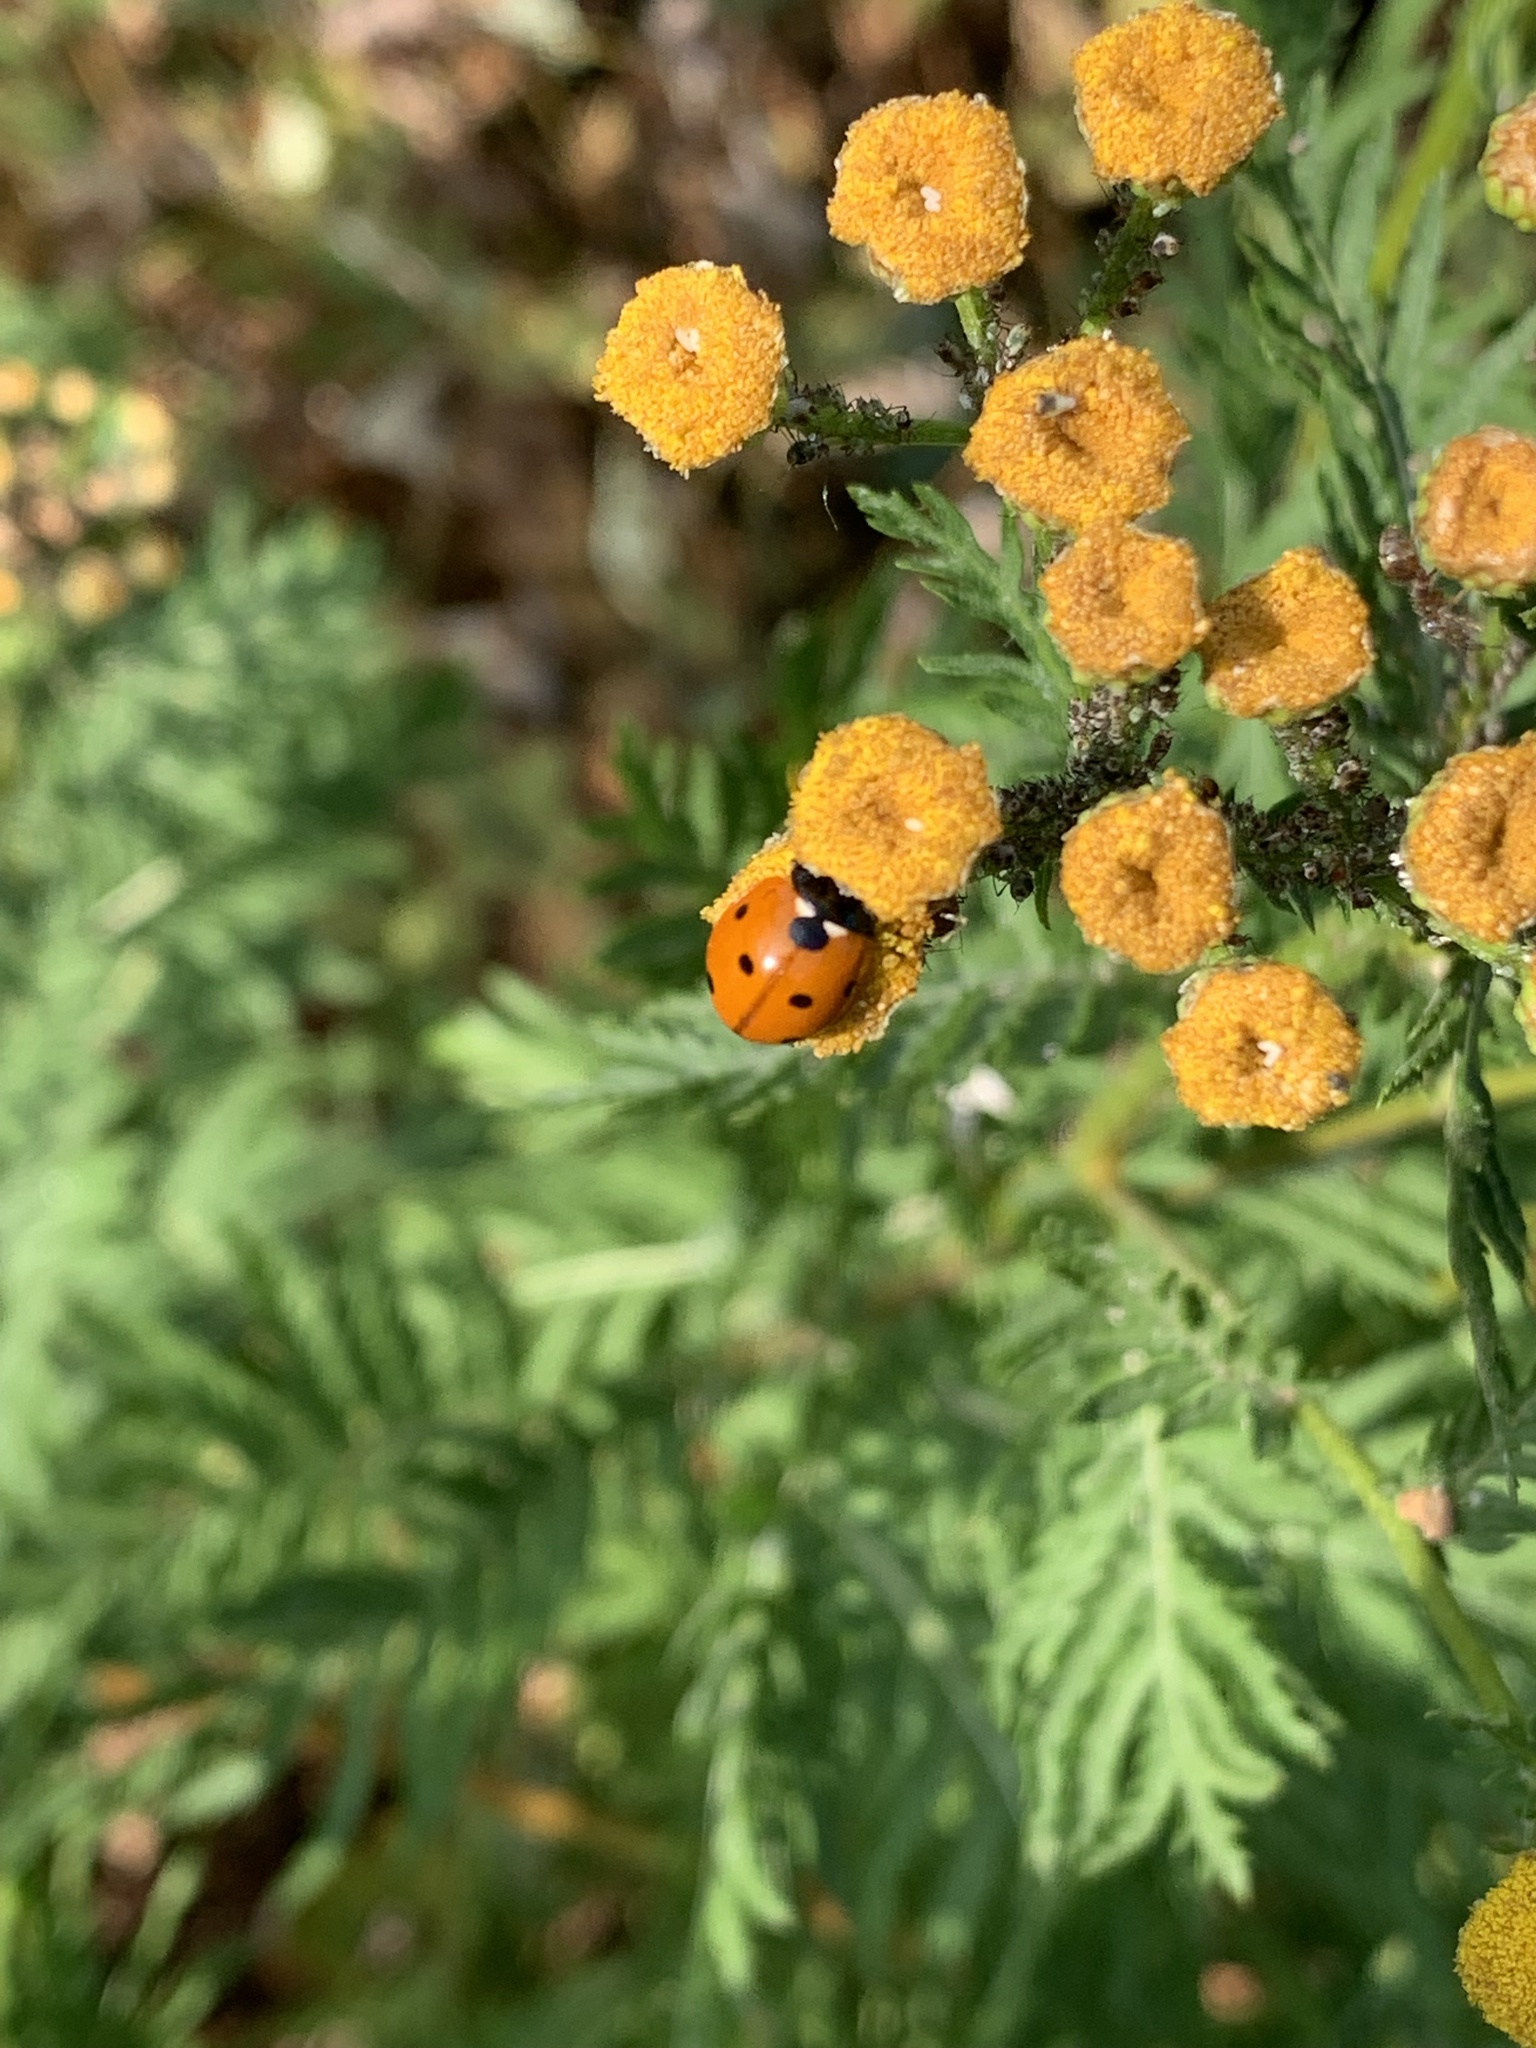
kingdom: Animalia
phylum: Arthropoda
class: Insecta
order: Coleoptera
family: Coccinellidae
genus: Coccinella
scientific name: Coccinella septempunctata
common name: Sevenspotted lady beetle
